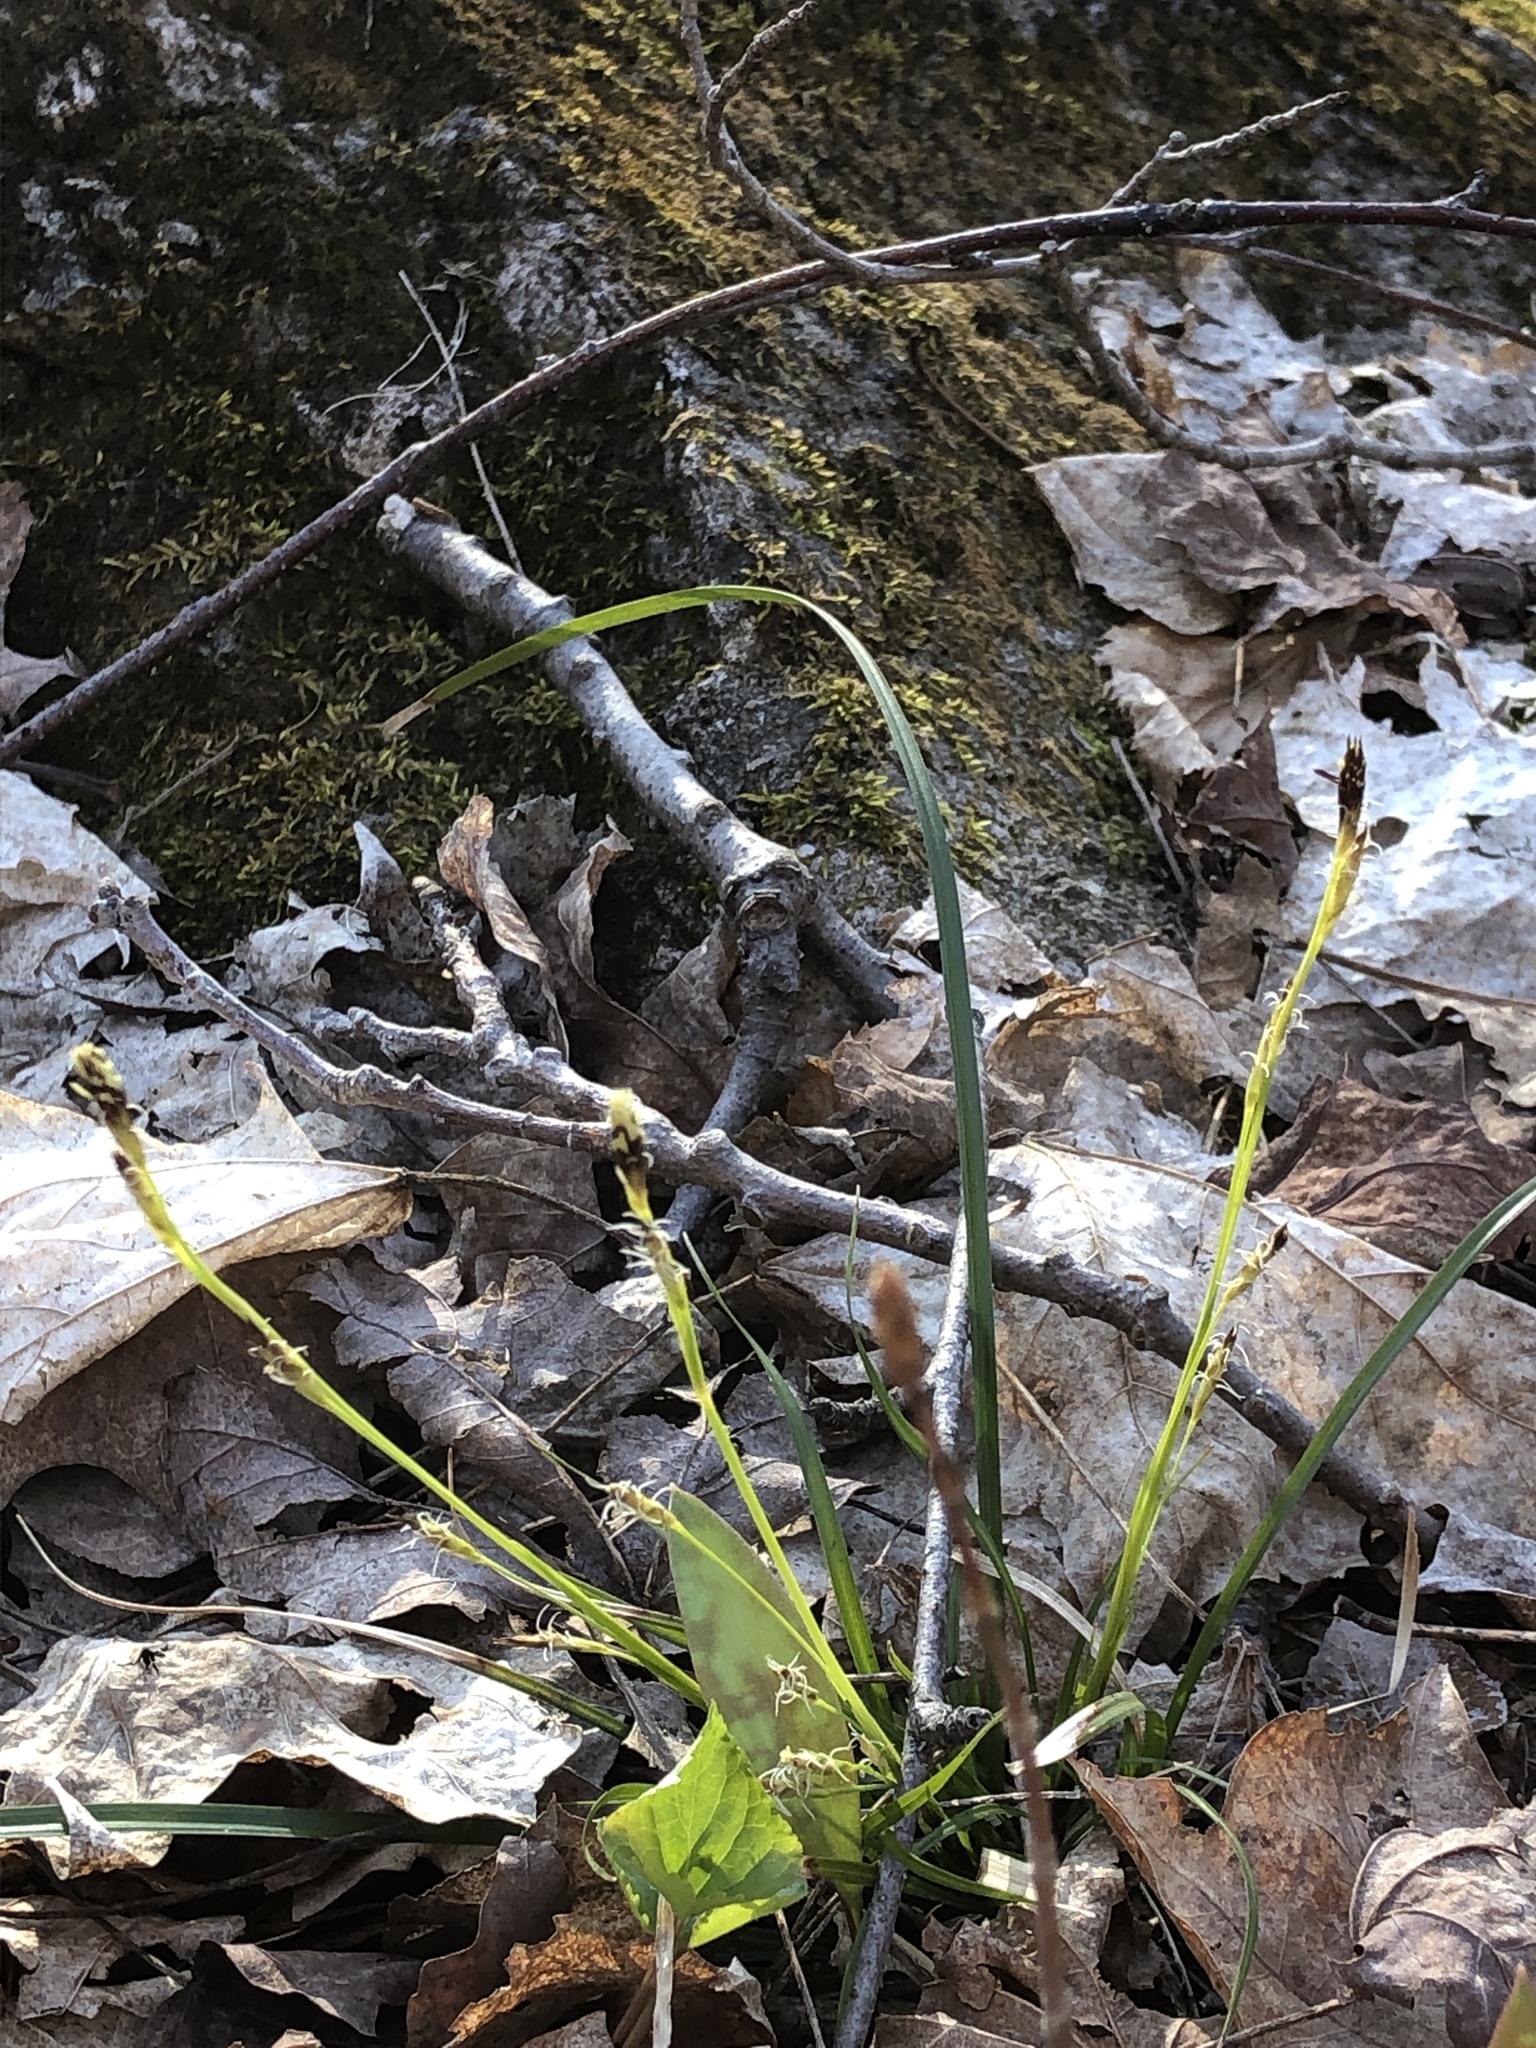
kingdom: Plantae
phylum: Tracheophyta
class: Liliopsida
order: Poales
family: Cyperaceae
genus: Carex
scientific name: Carex pedunculata
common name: Pedunculate sedge
